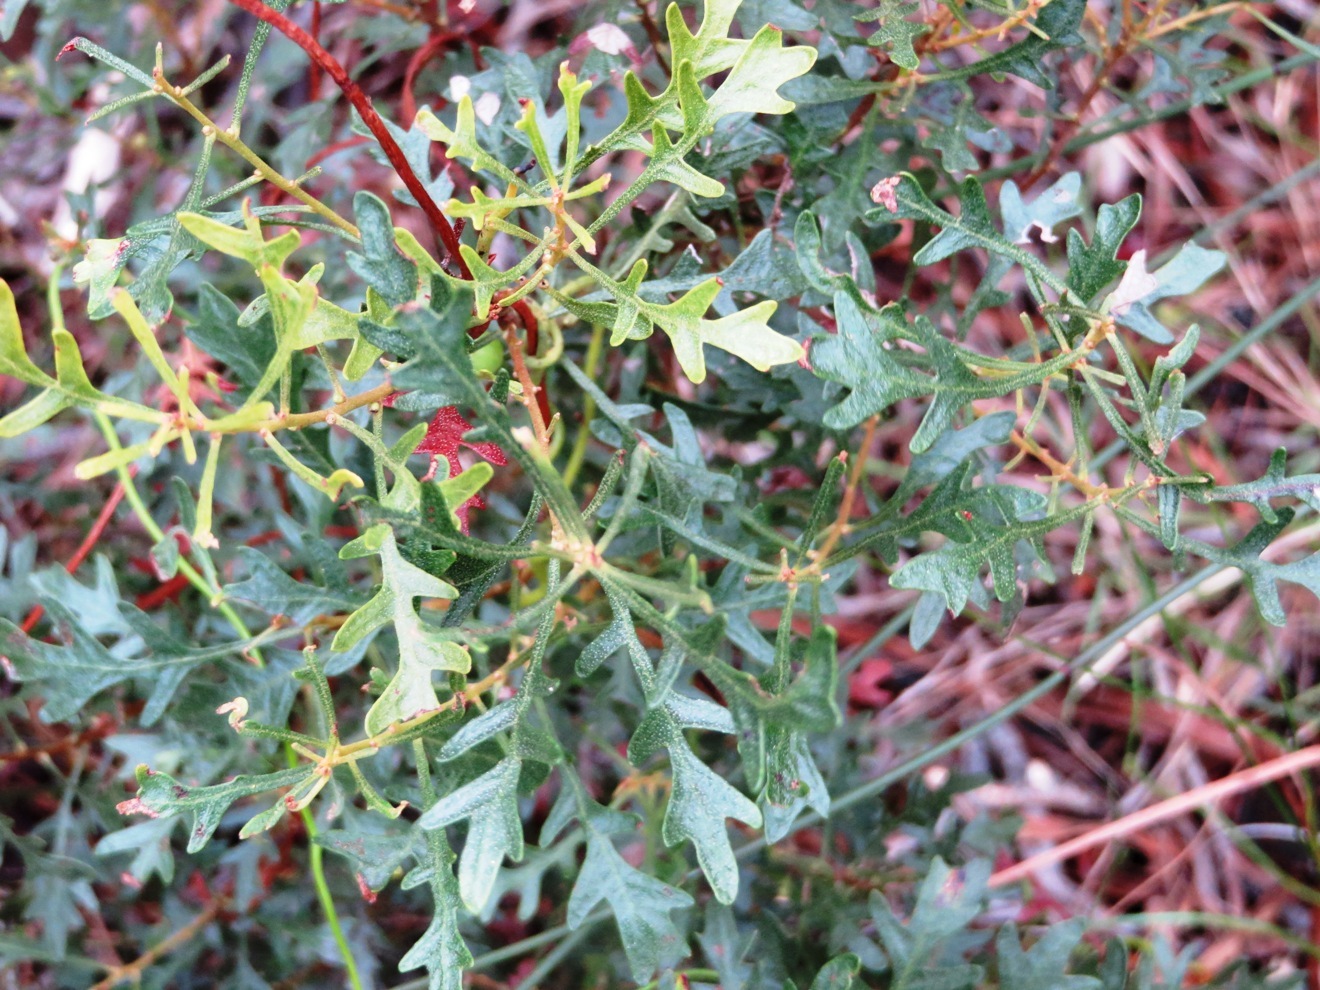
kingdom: Plantae
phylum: Tracheophyta
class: Magnoliopsida
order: Fagales
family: Myricaceae
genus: Morella
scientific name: Morella quercifolia
